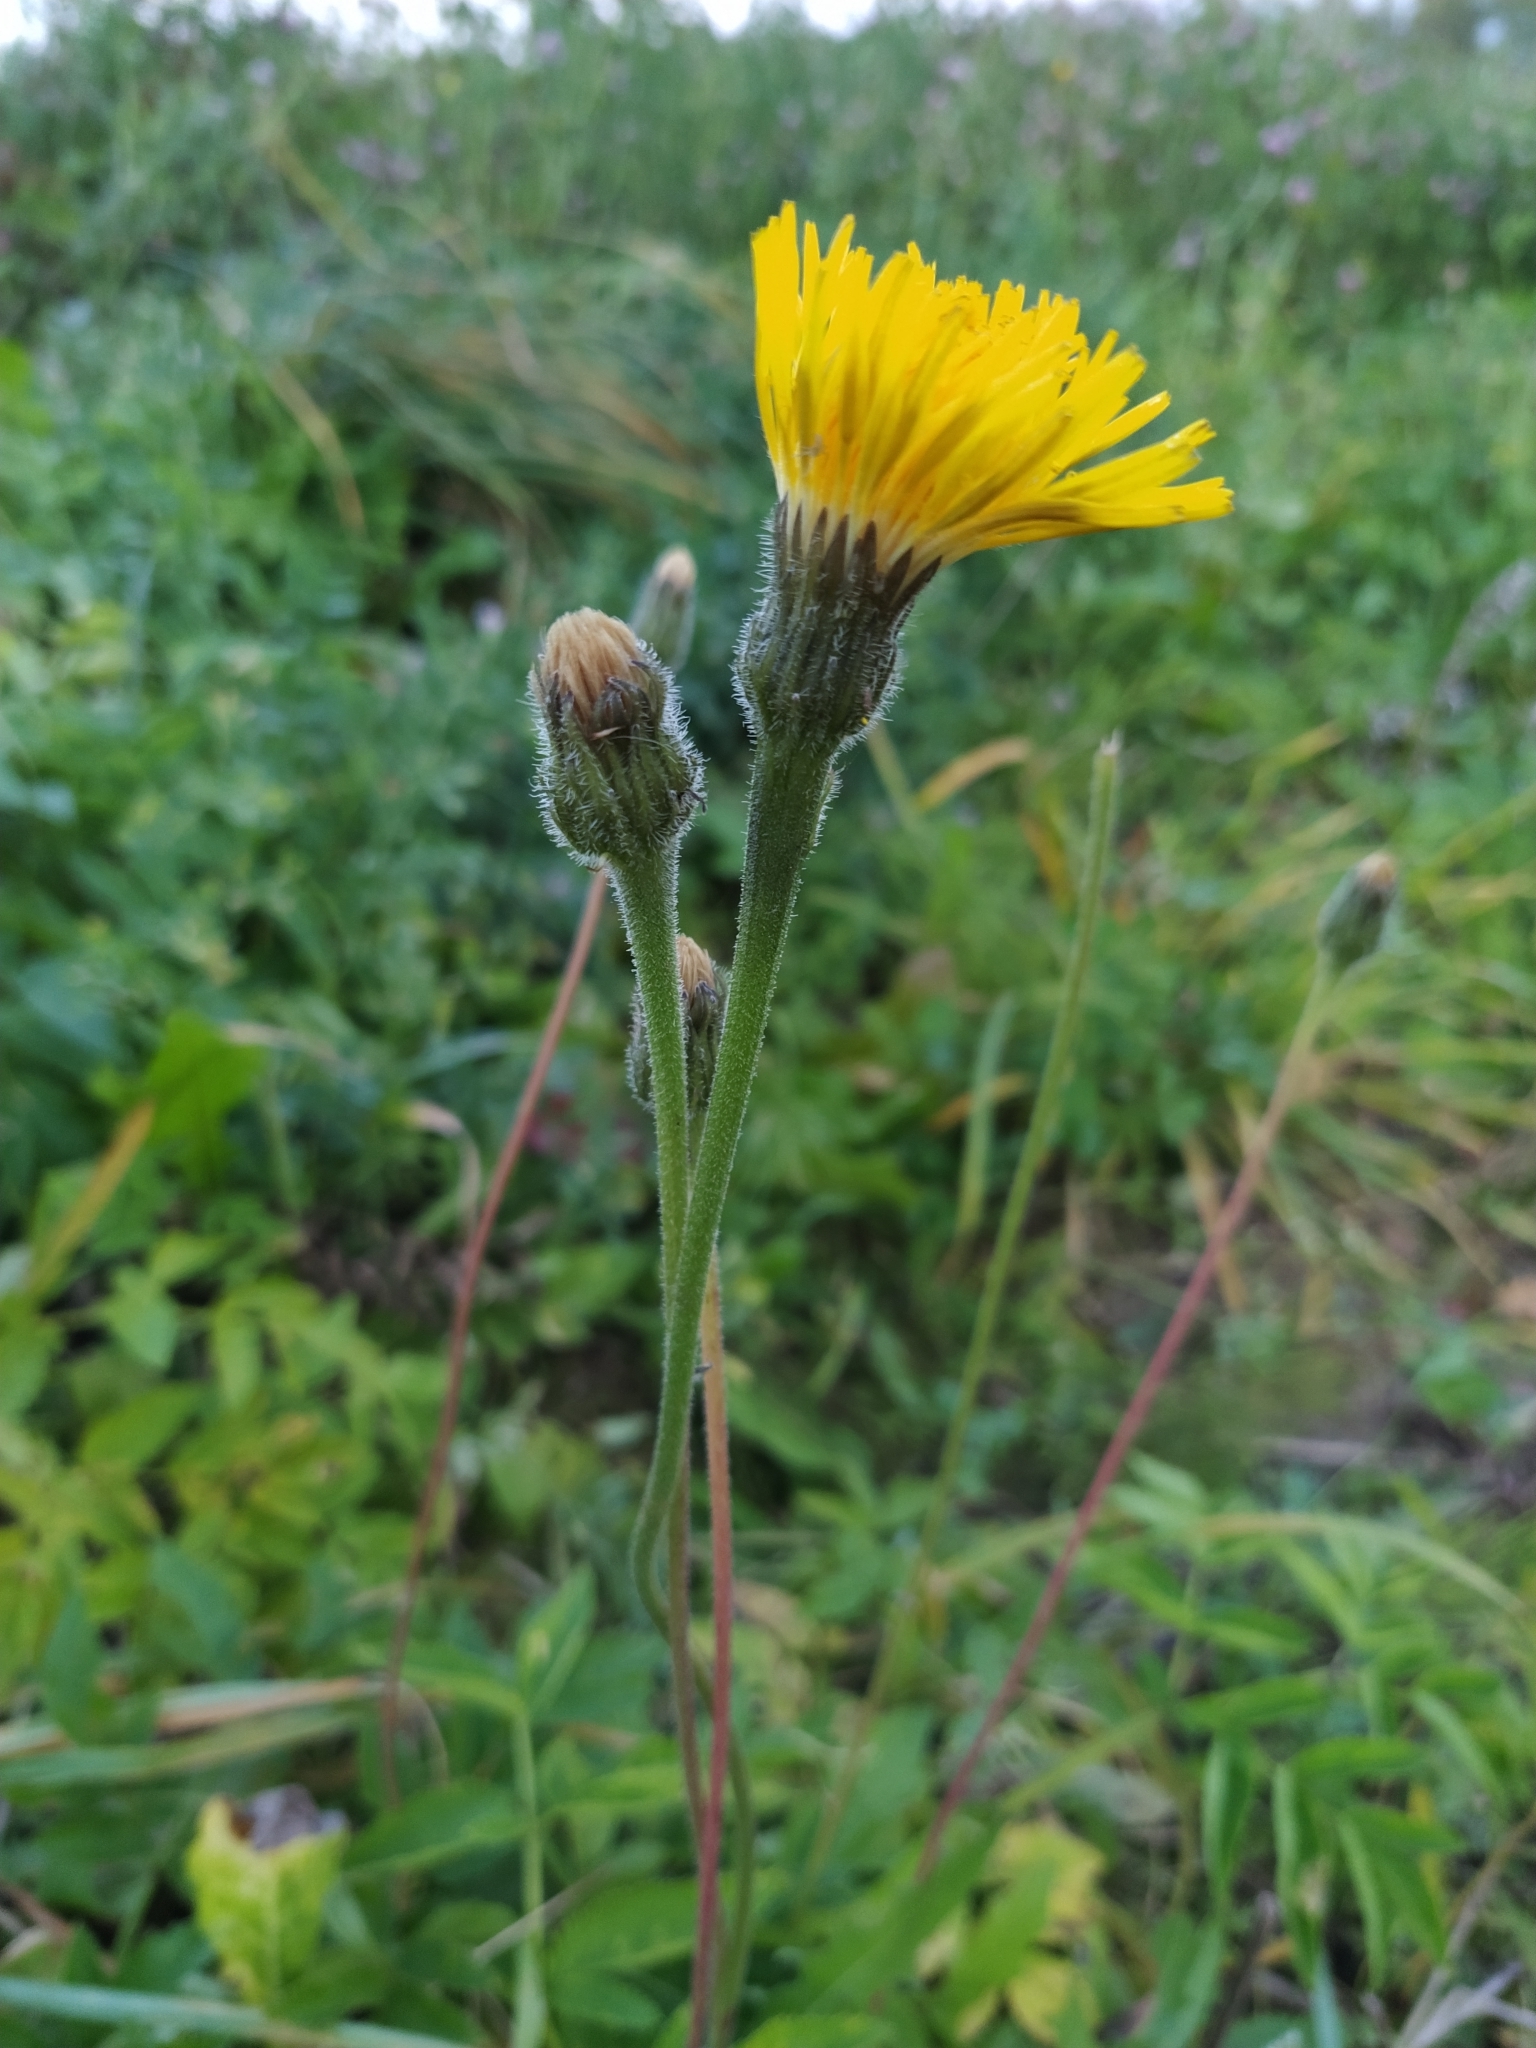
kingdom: Plantae
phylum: Tracheophyta
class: Magnoliopsida
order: Asterales
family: Asteraceae
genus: Leontodon
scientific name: Leontodon hispidus
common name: Rough hawkbit
